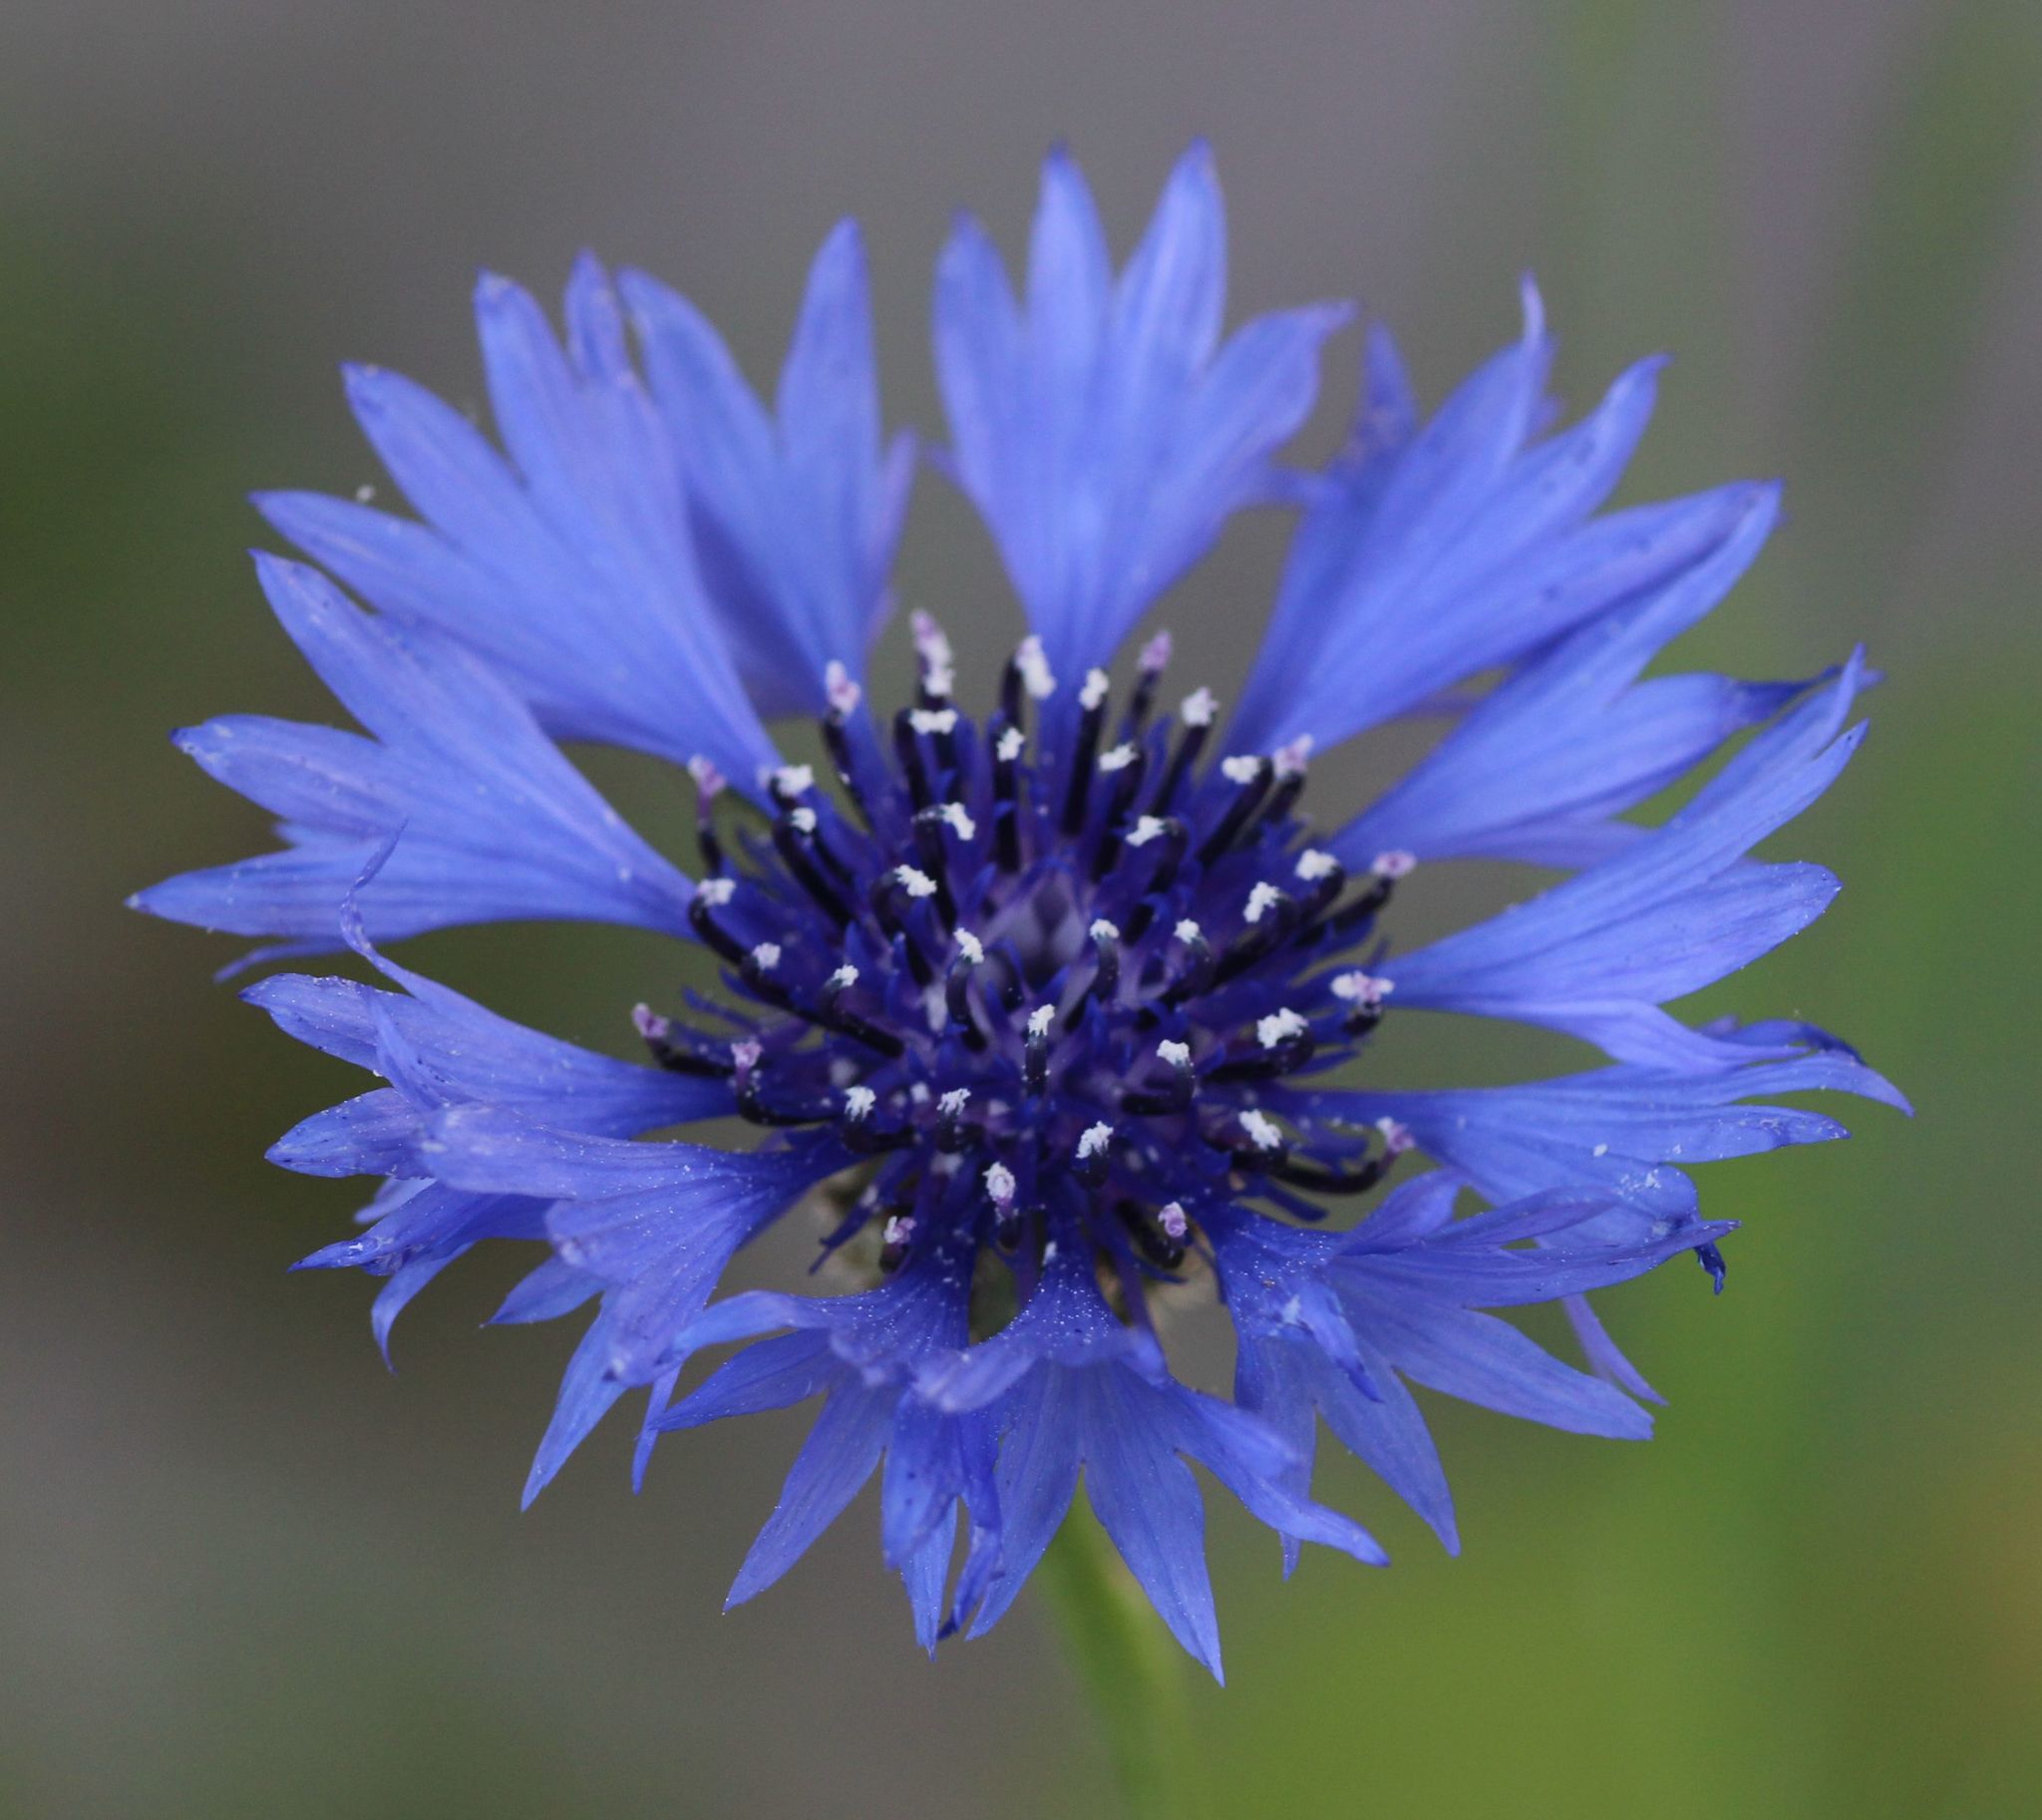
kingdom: Plantae
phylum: Tracheophyta
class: Magnoliopsida
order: Asterales
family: Asteraceae
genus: Centaurea
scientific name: Centaurea cyanus
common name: Cornflower
